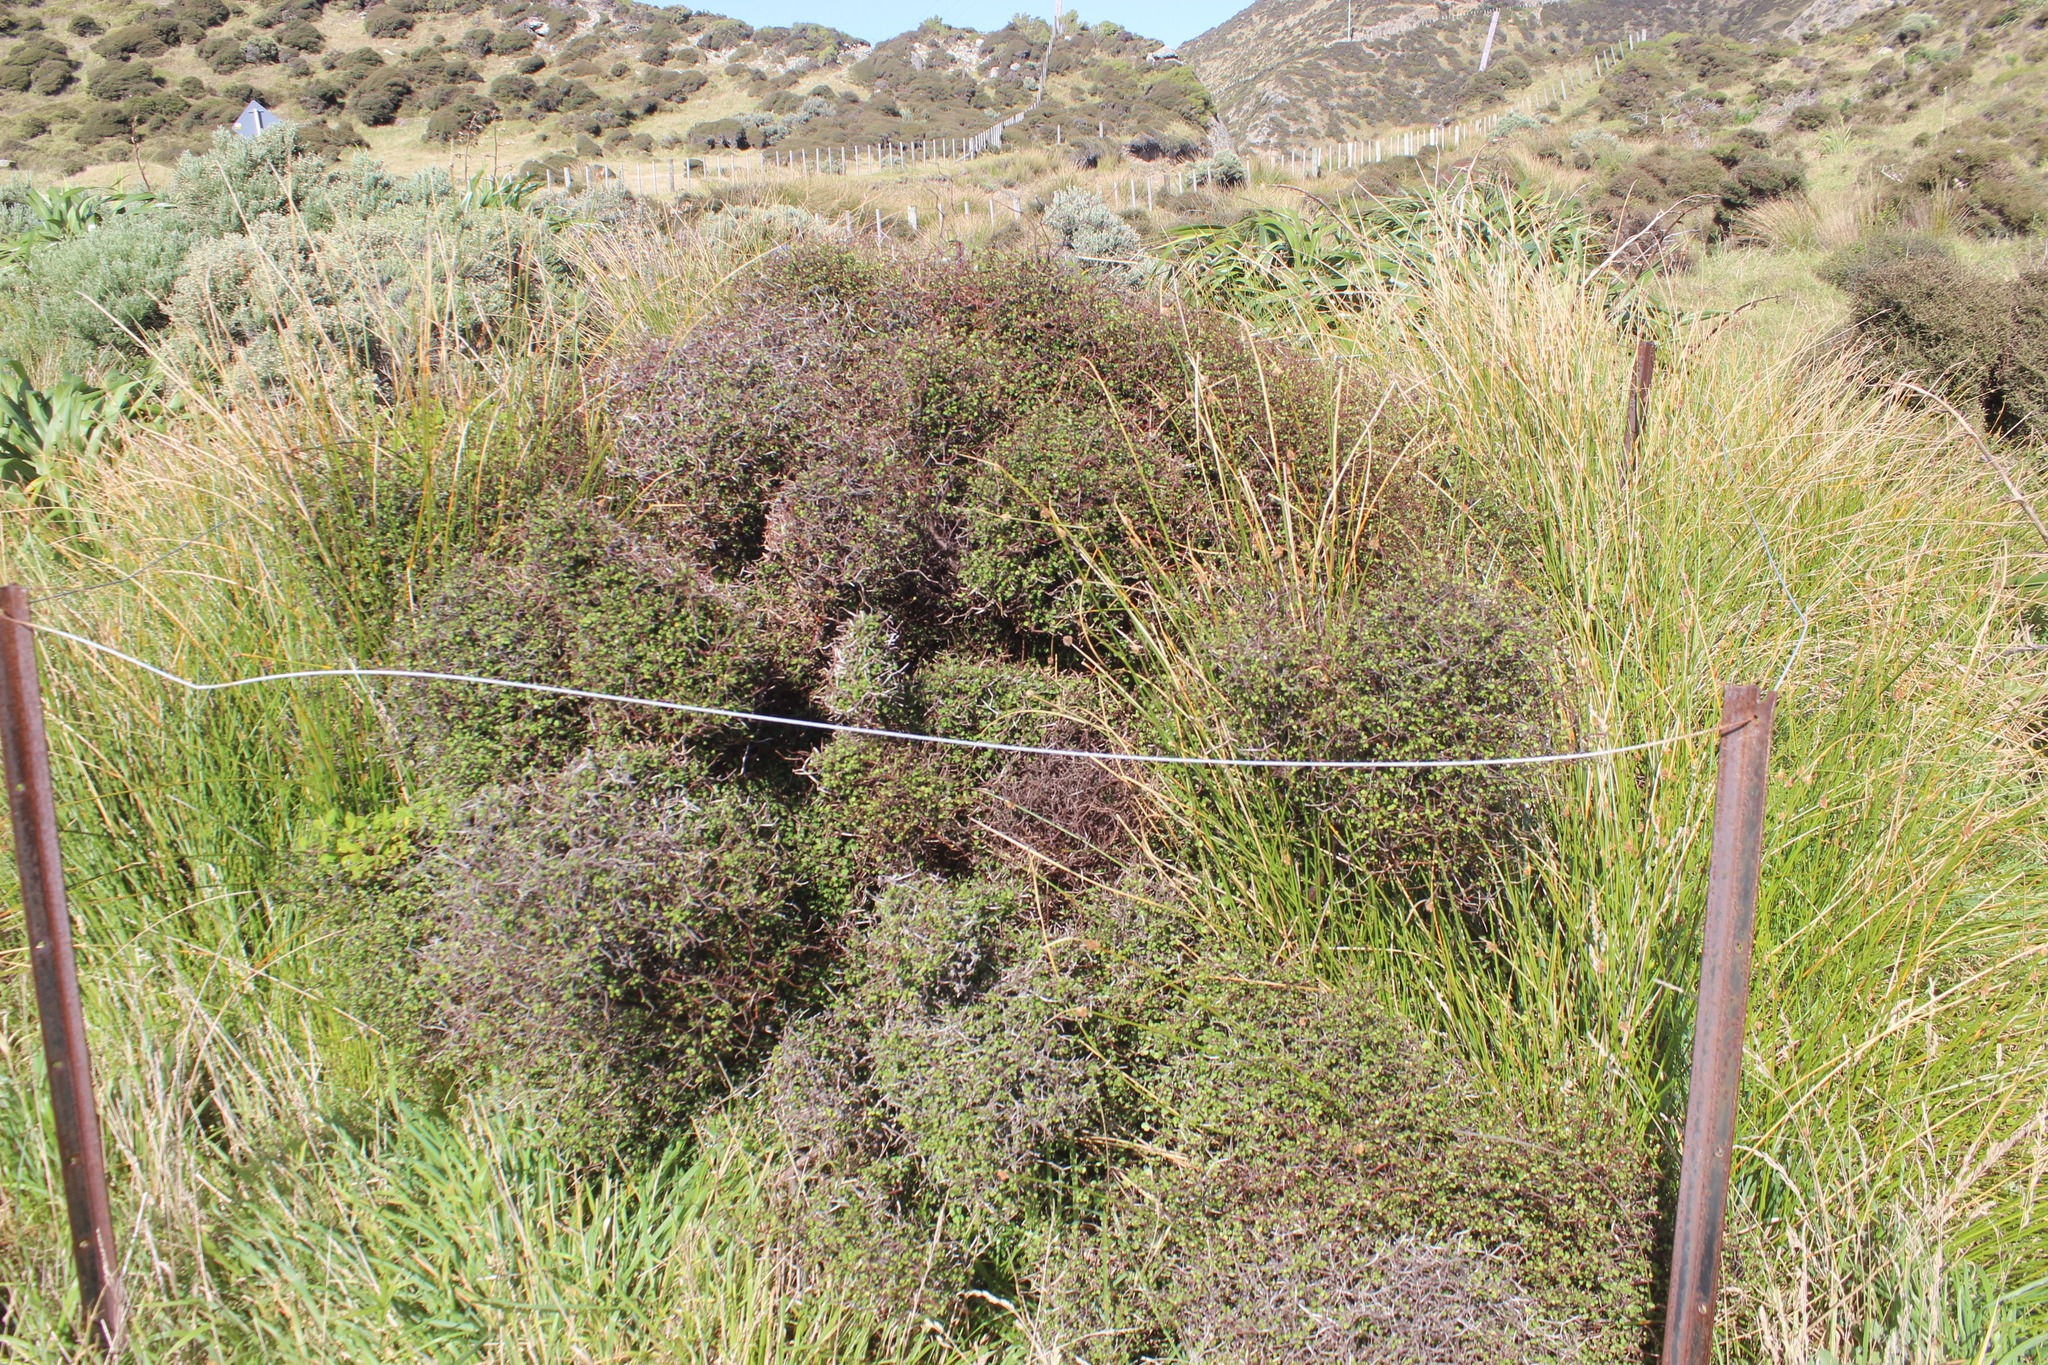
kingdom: Plantae
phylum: Tracheophyta
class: Magnoliopsida
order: Caryophyllales
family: Polygonaceae
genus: Muehlenbeckia
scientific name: Muehlenbeckia astonii
